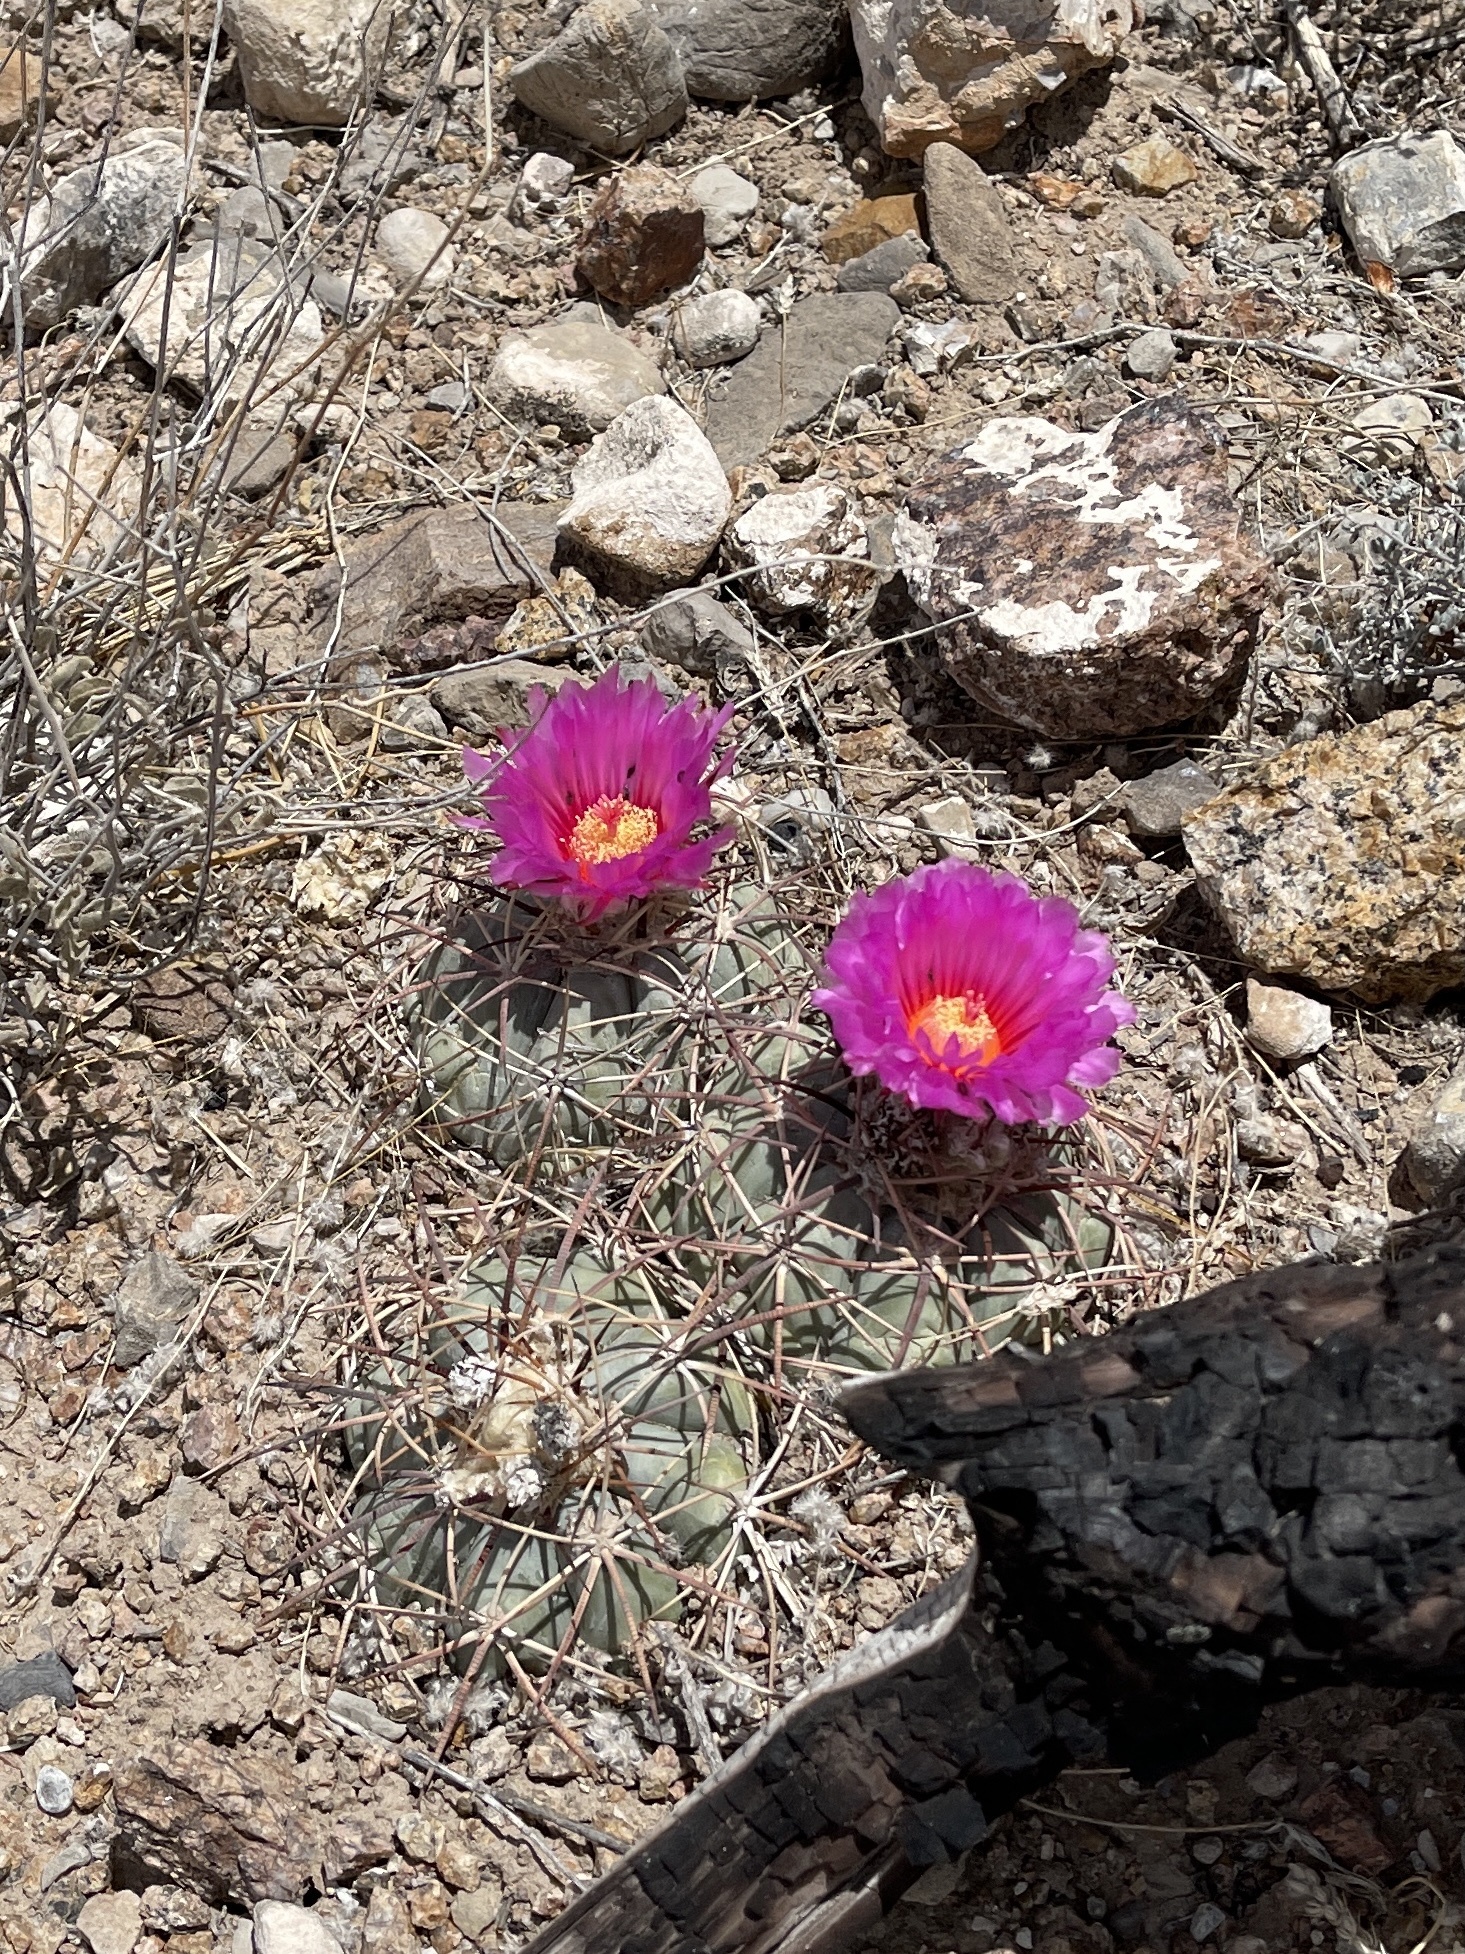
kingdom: Plantae
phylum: Tracheophyta
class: Magnoliopsida
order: Caryophyllales
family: Cactaceae
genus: Echinocactus
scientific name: Echinocactus horizonthalonius
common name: Devilshead
